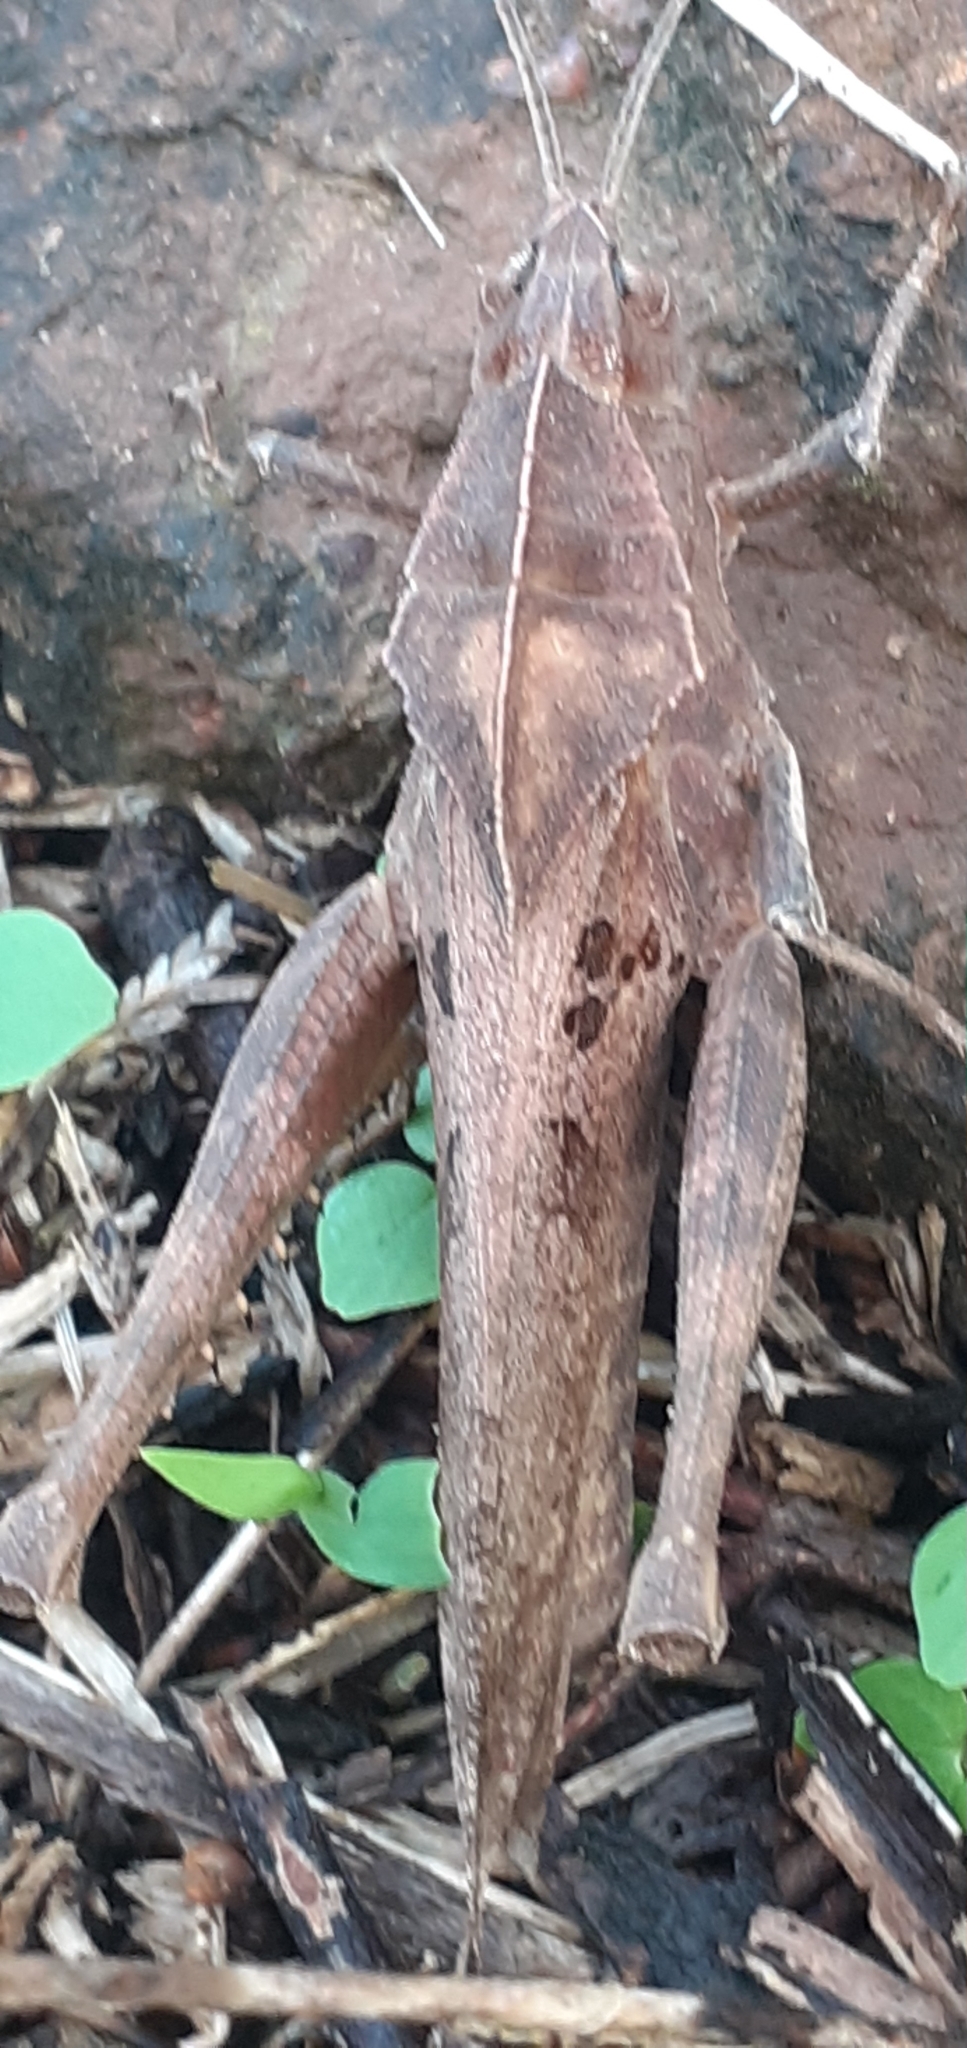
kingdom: Animalia
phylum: Arthropoda
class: Insecta
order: Orthoptera
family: Romaleidae
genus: Xyleus
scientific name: Xyleus discoideus
